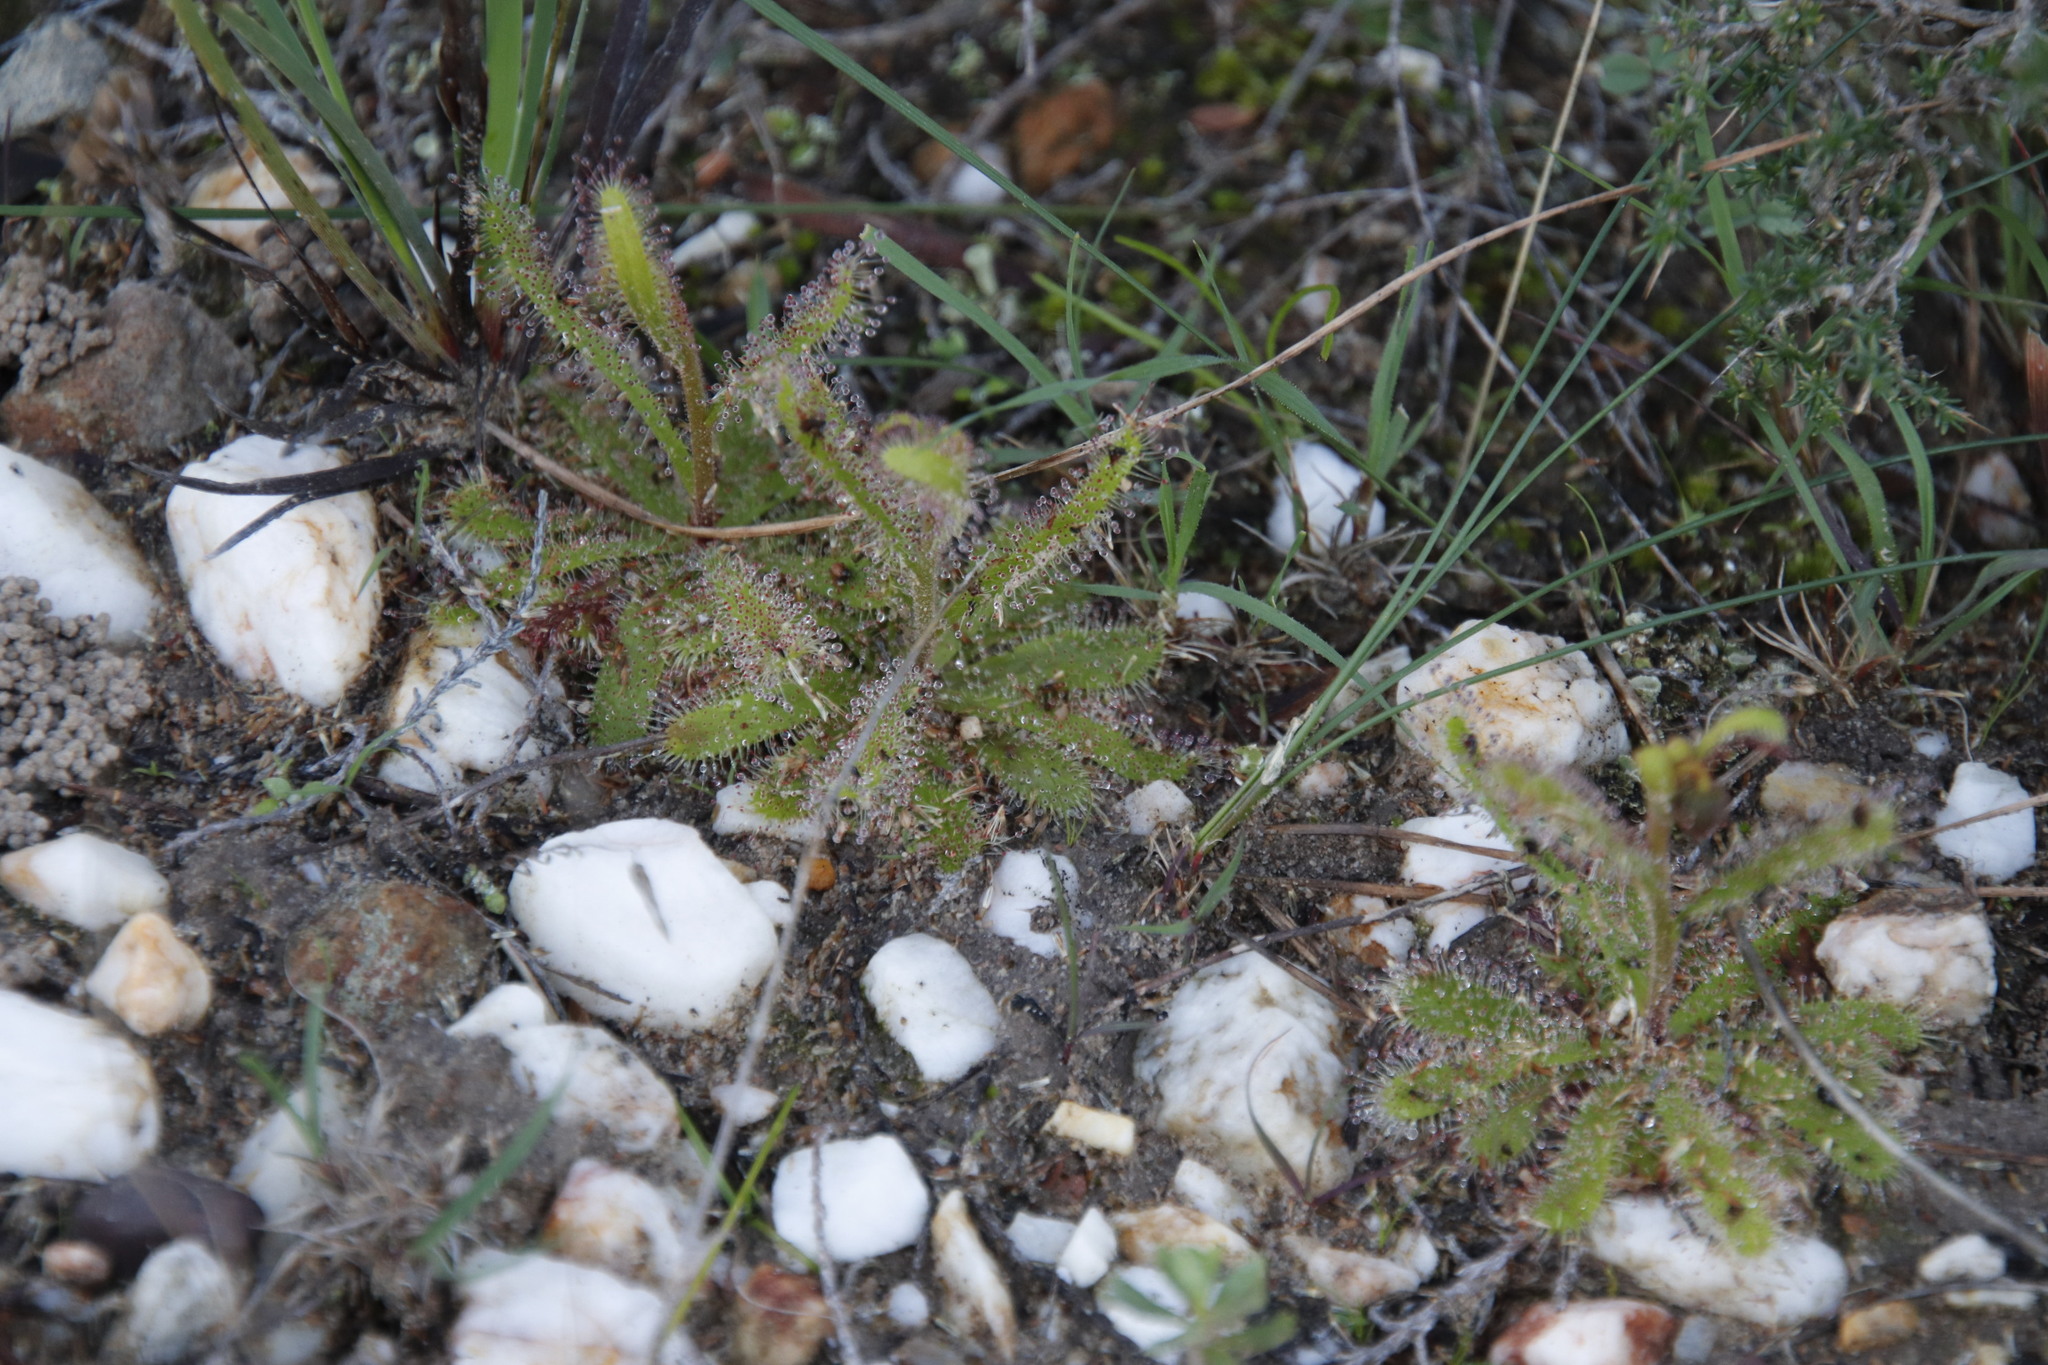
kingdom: Plantae
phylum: Tracheophyta
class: Magnoliopsida
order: Caryophyllales
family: Droseraceae
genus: Drosera
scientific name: Drosera cistiflora
